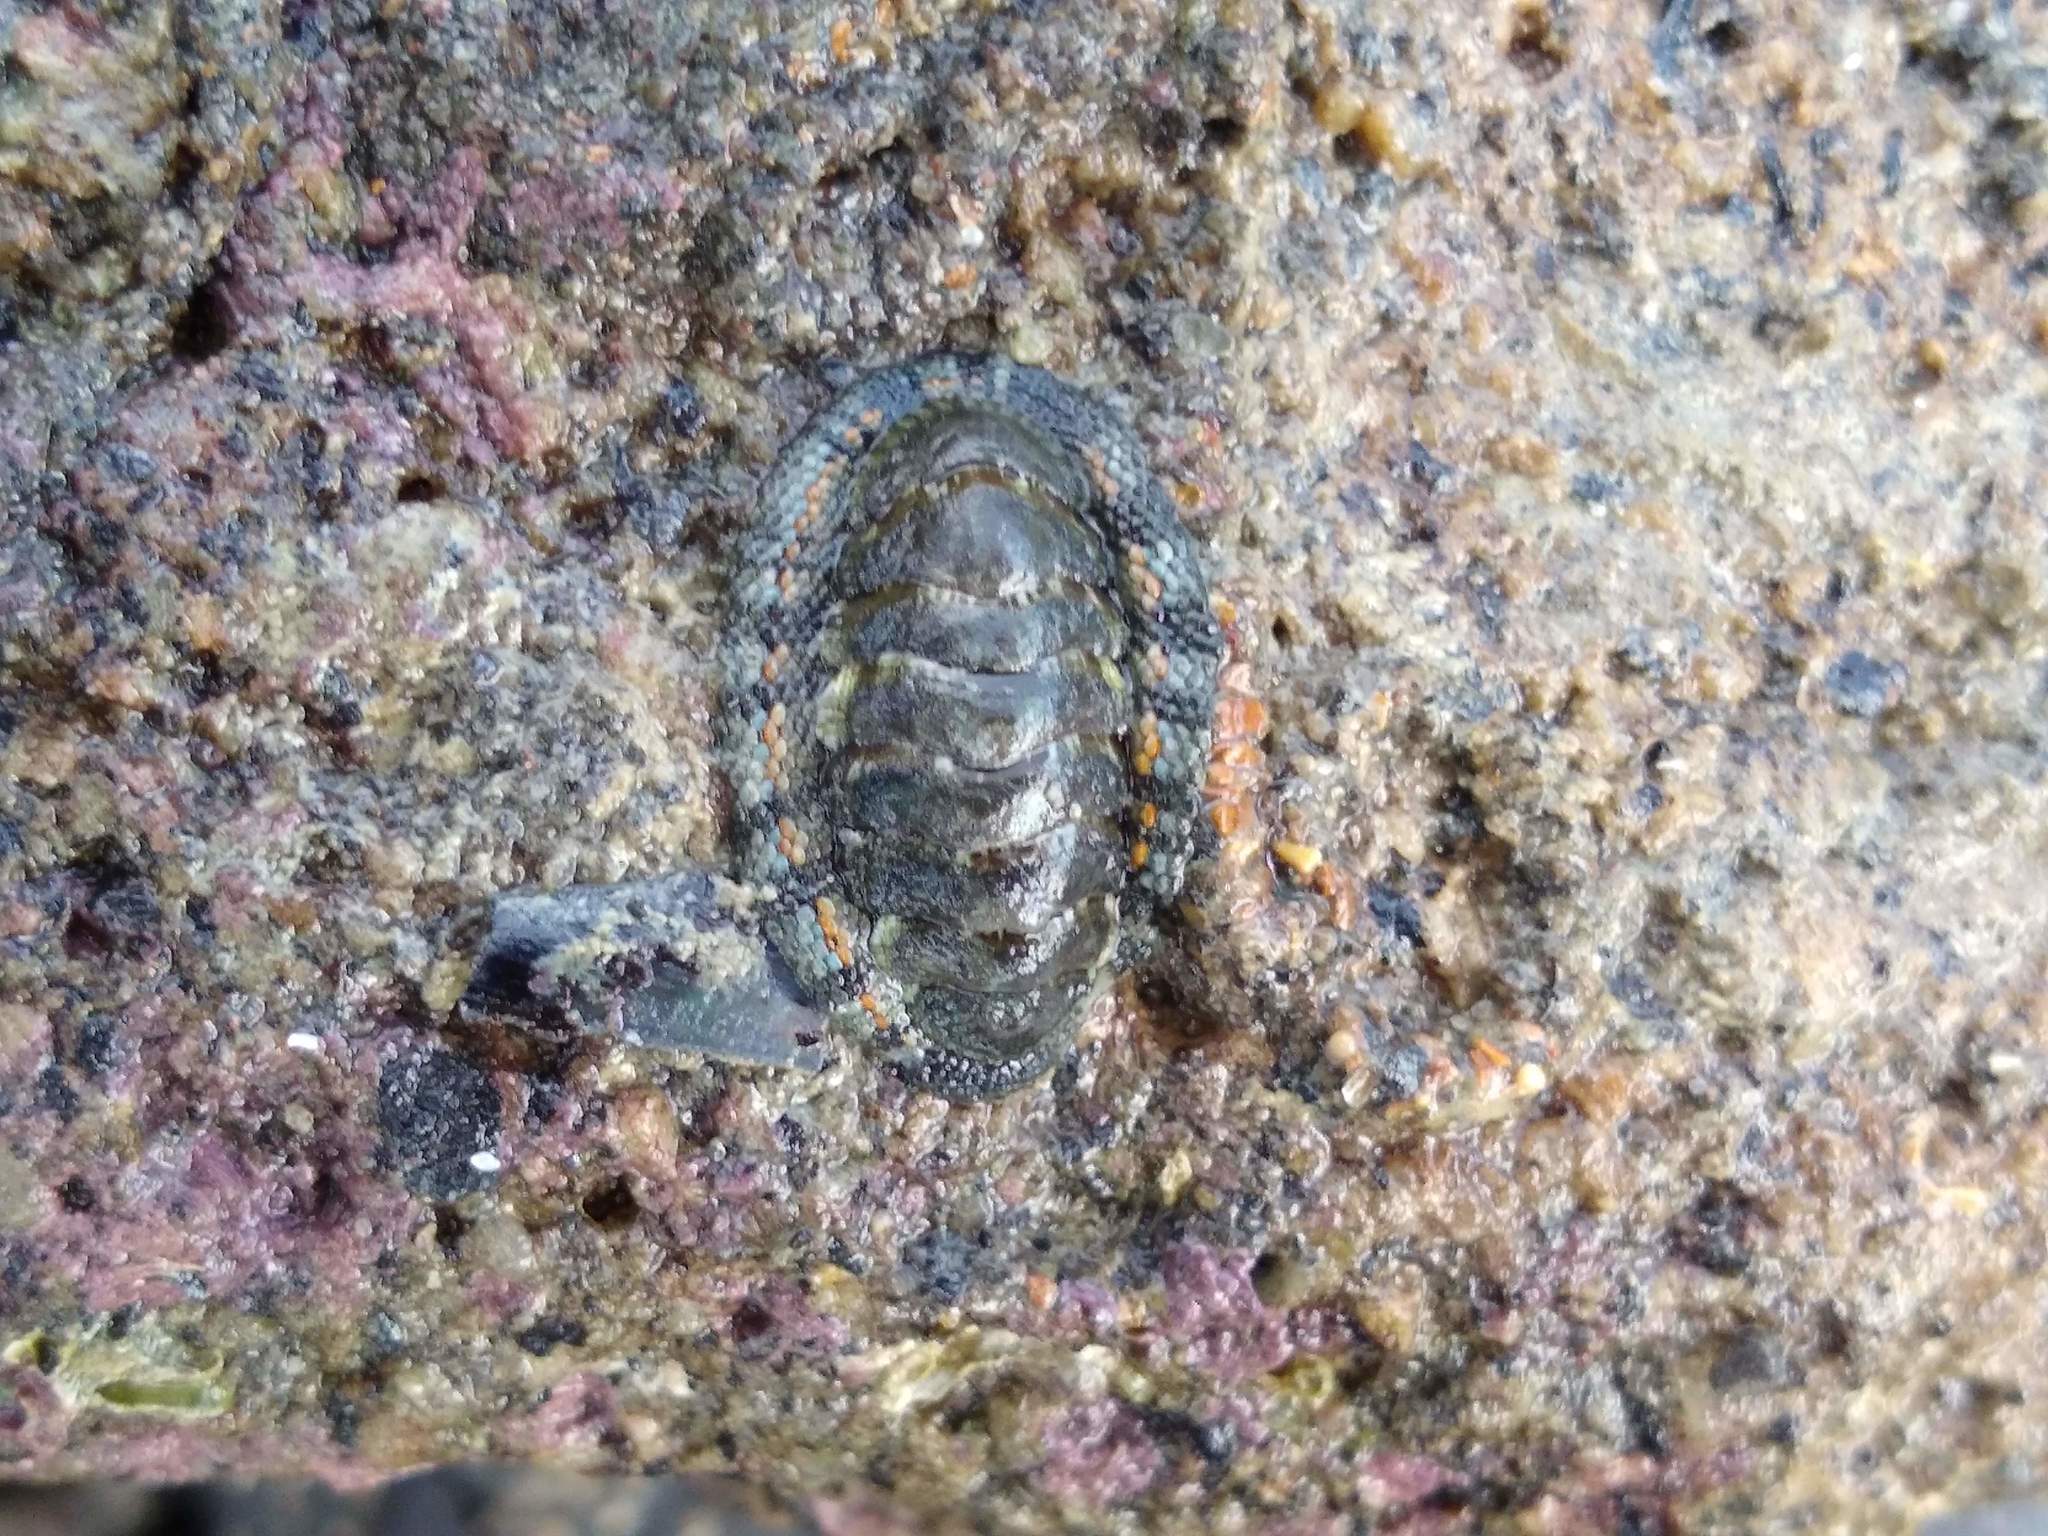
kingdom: Animalia
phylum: Mollusca
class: Polyplacophora
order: Chitonida
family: Chitonidae
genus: Sypharochiton
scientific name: Sypharochiton sinclairi
